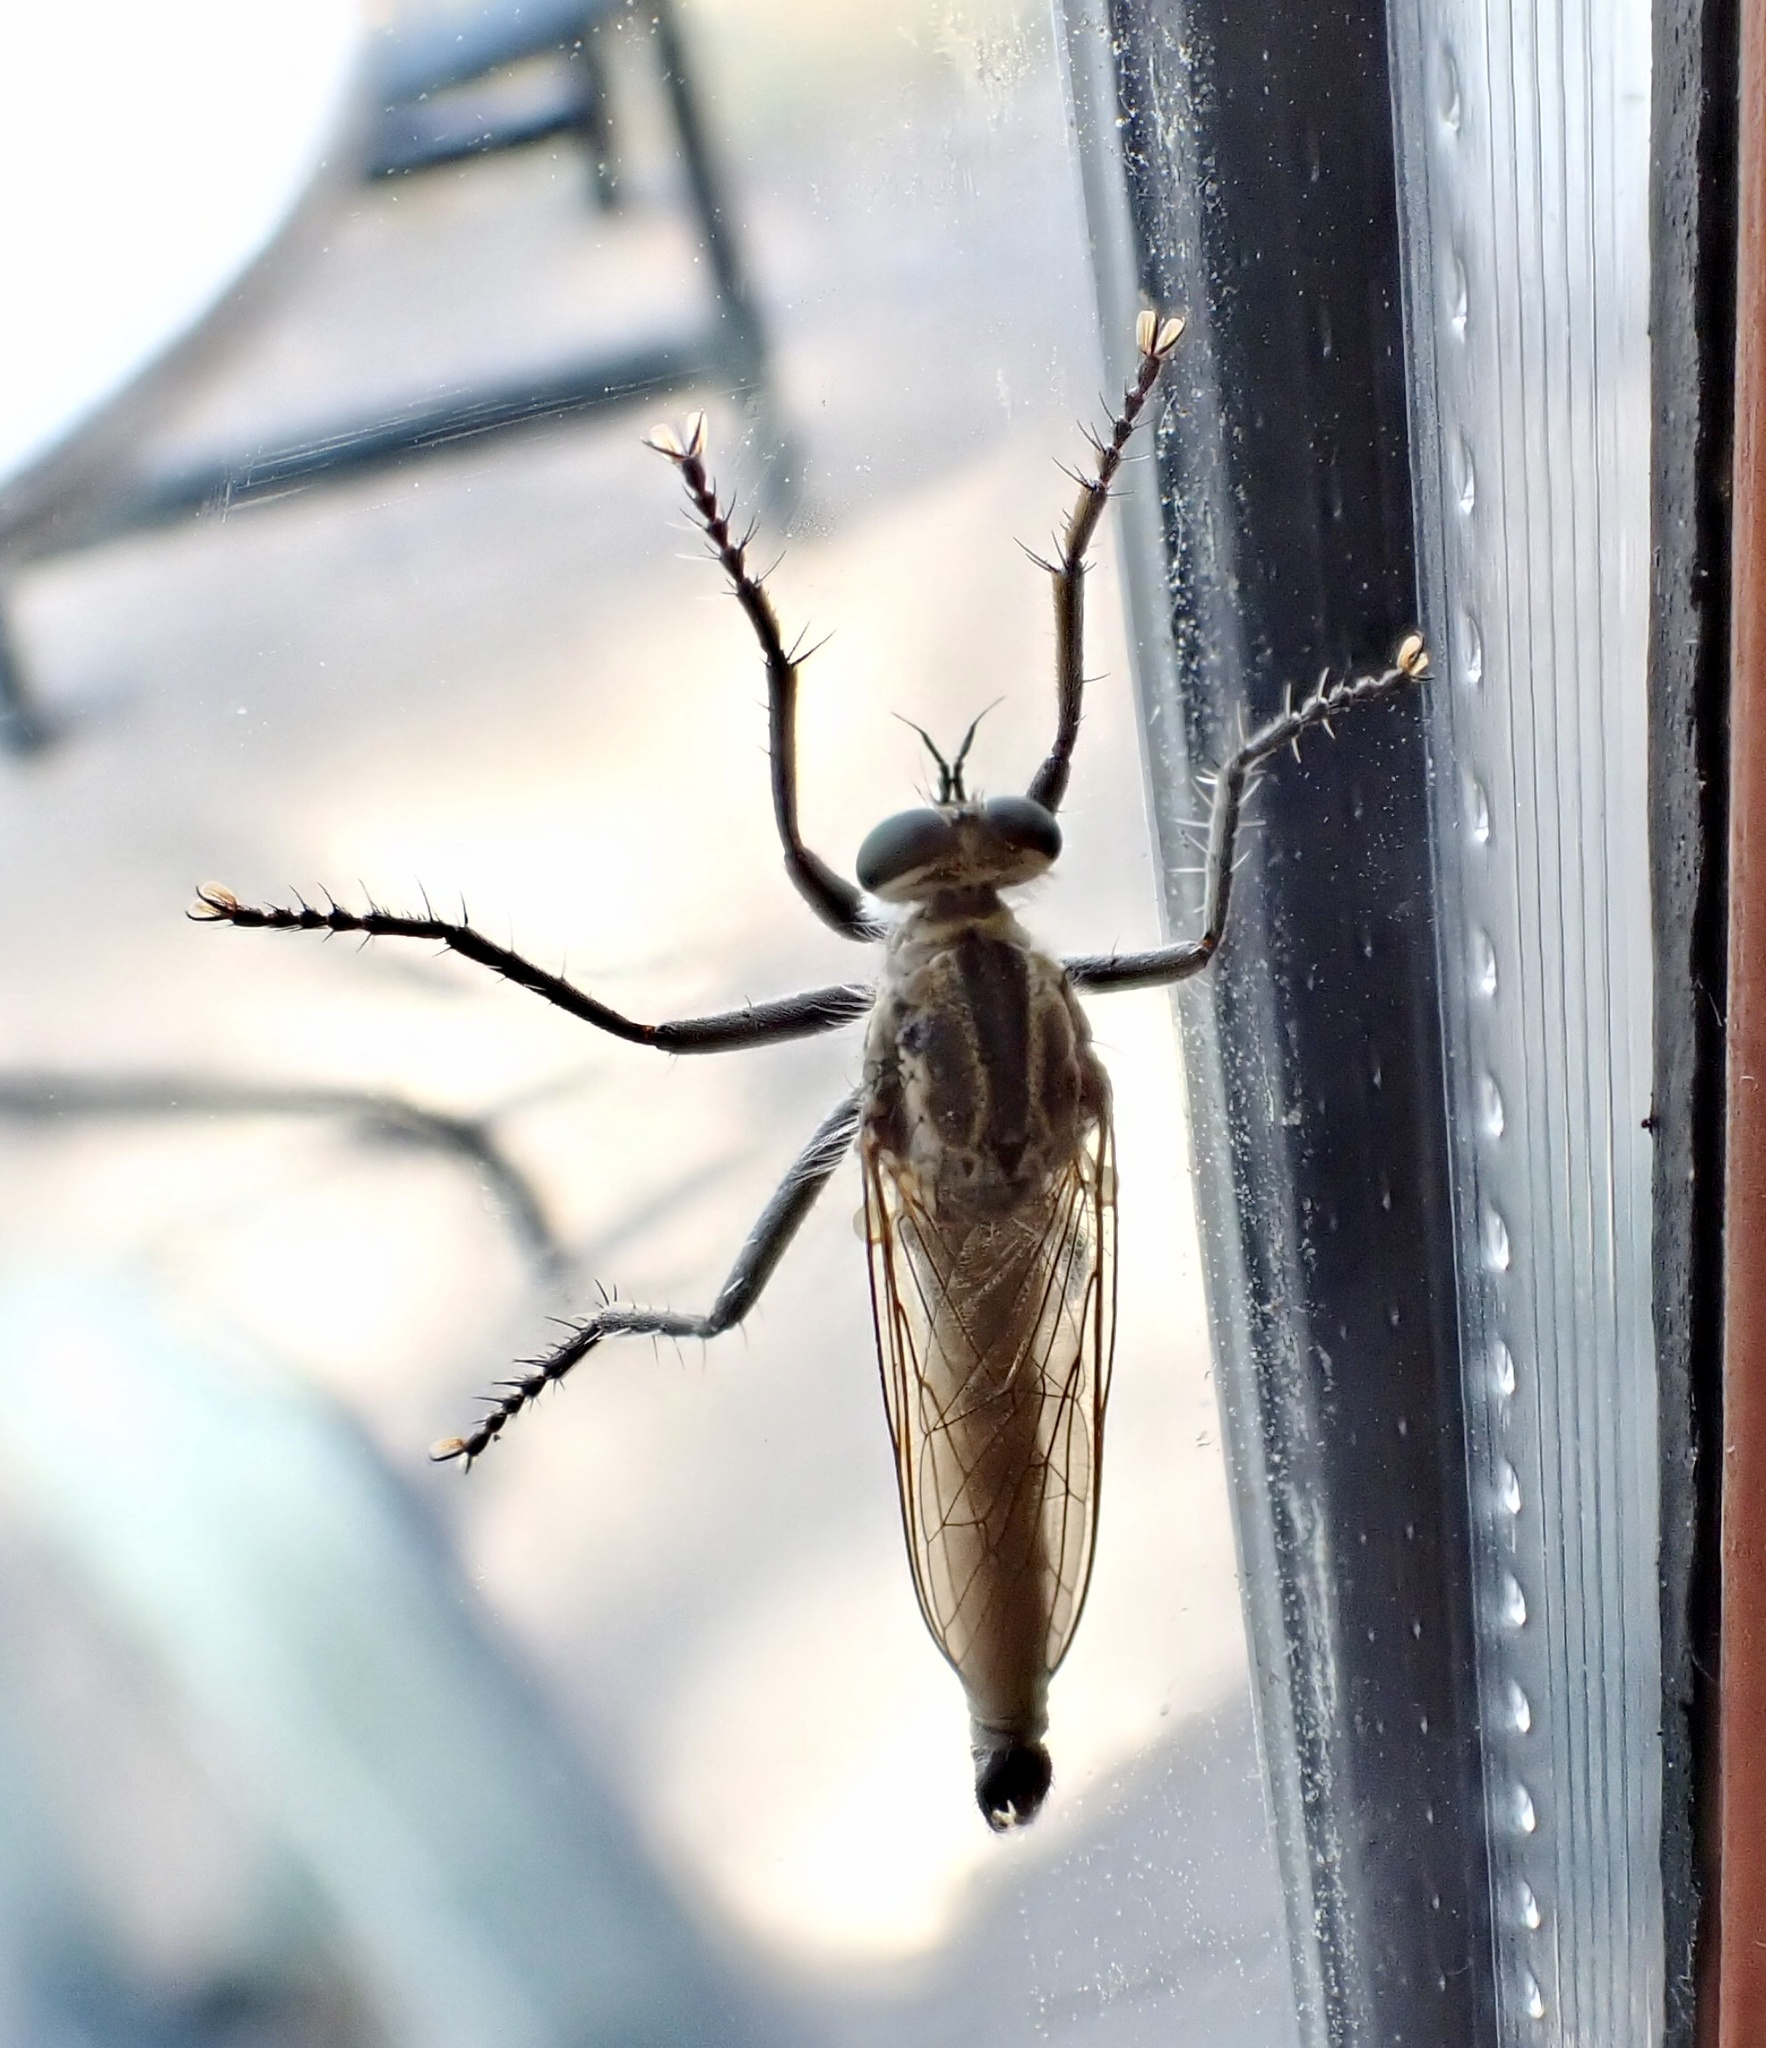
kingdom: Animalia
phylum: Arthropoda
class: Insecta
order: Diptera
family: Asilidae
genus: Philonicus
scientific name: Philonicus albiceps
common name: Dune robberfly
